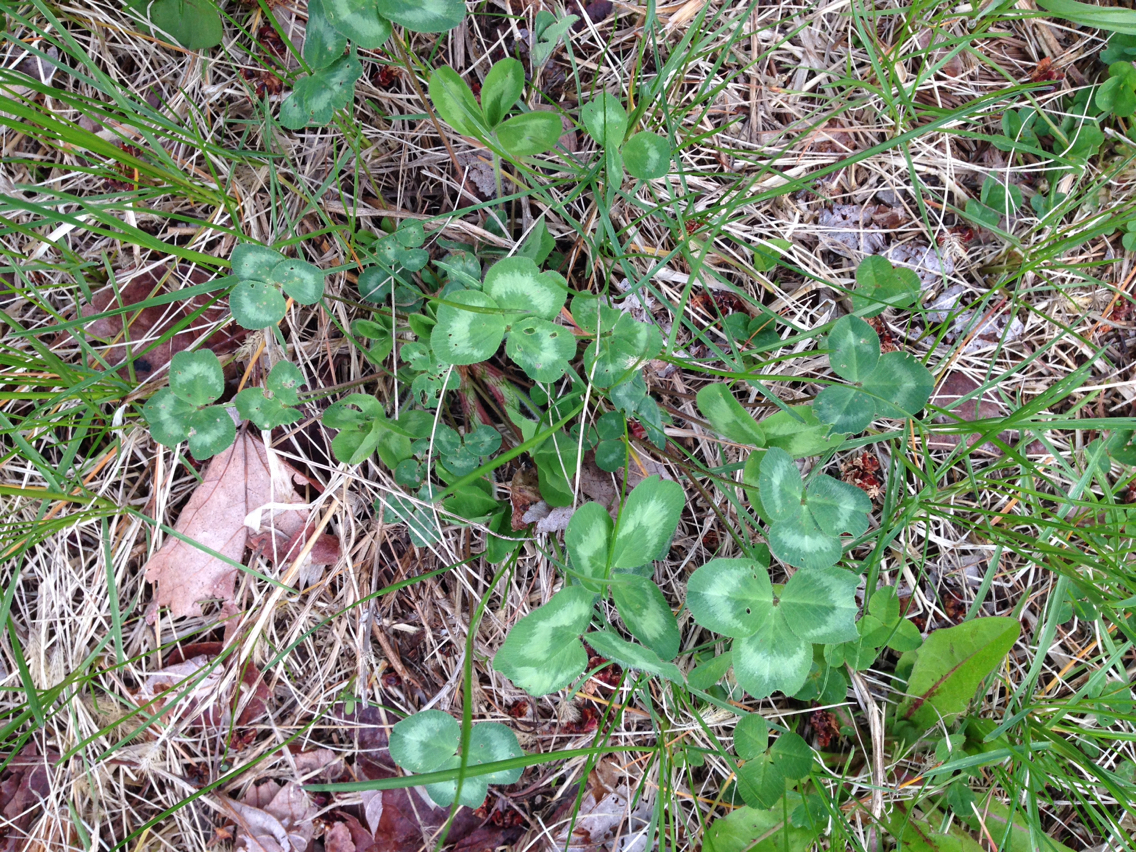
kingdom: Plantae
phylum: Tracheophyta
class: Magnoliopsida
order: Fabales
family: Fabaceae
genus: Trifolium
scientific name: Trifolium pratense
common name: Red clover
